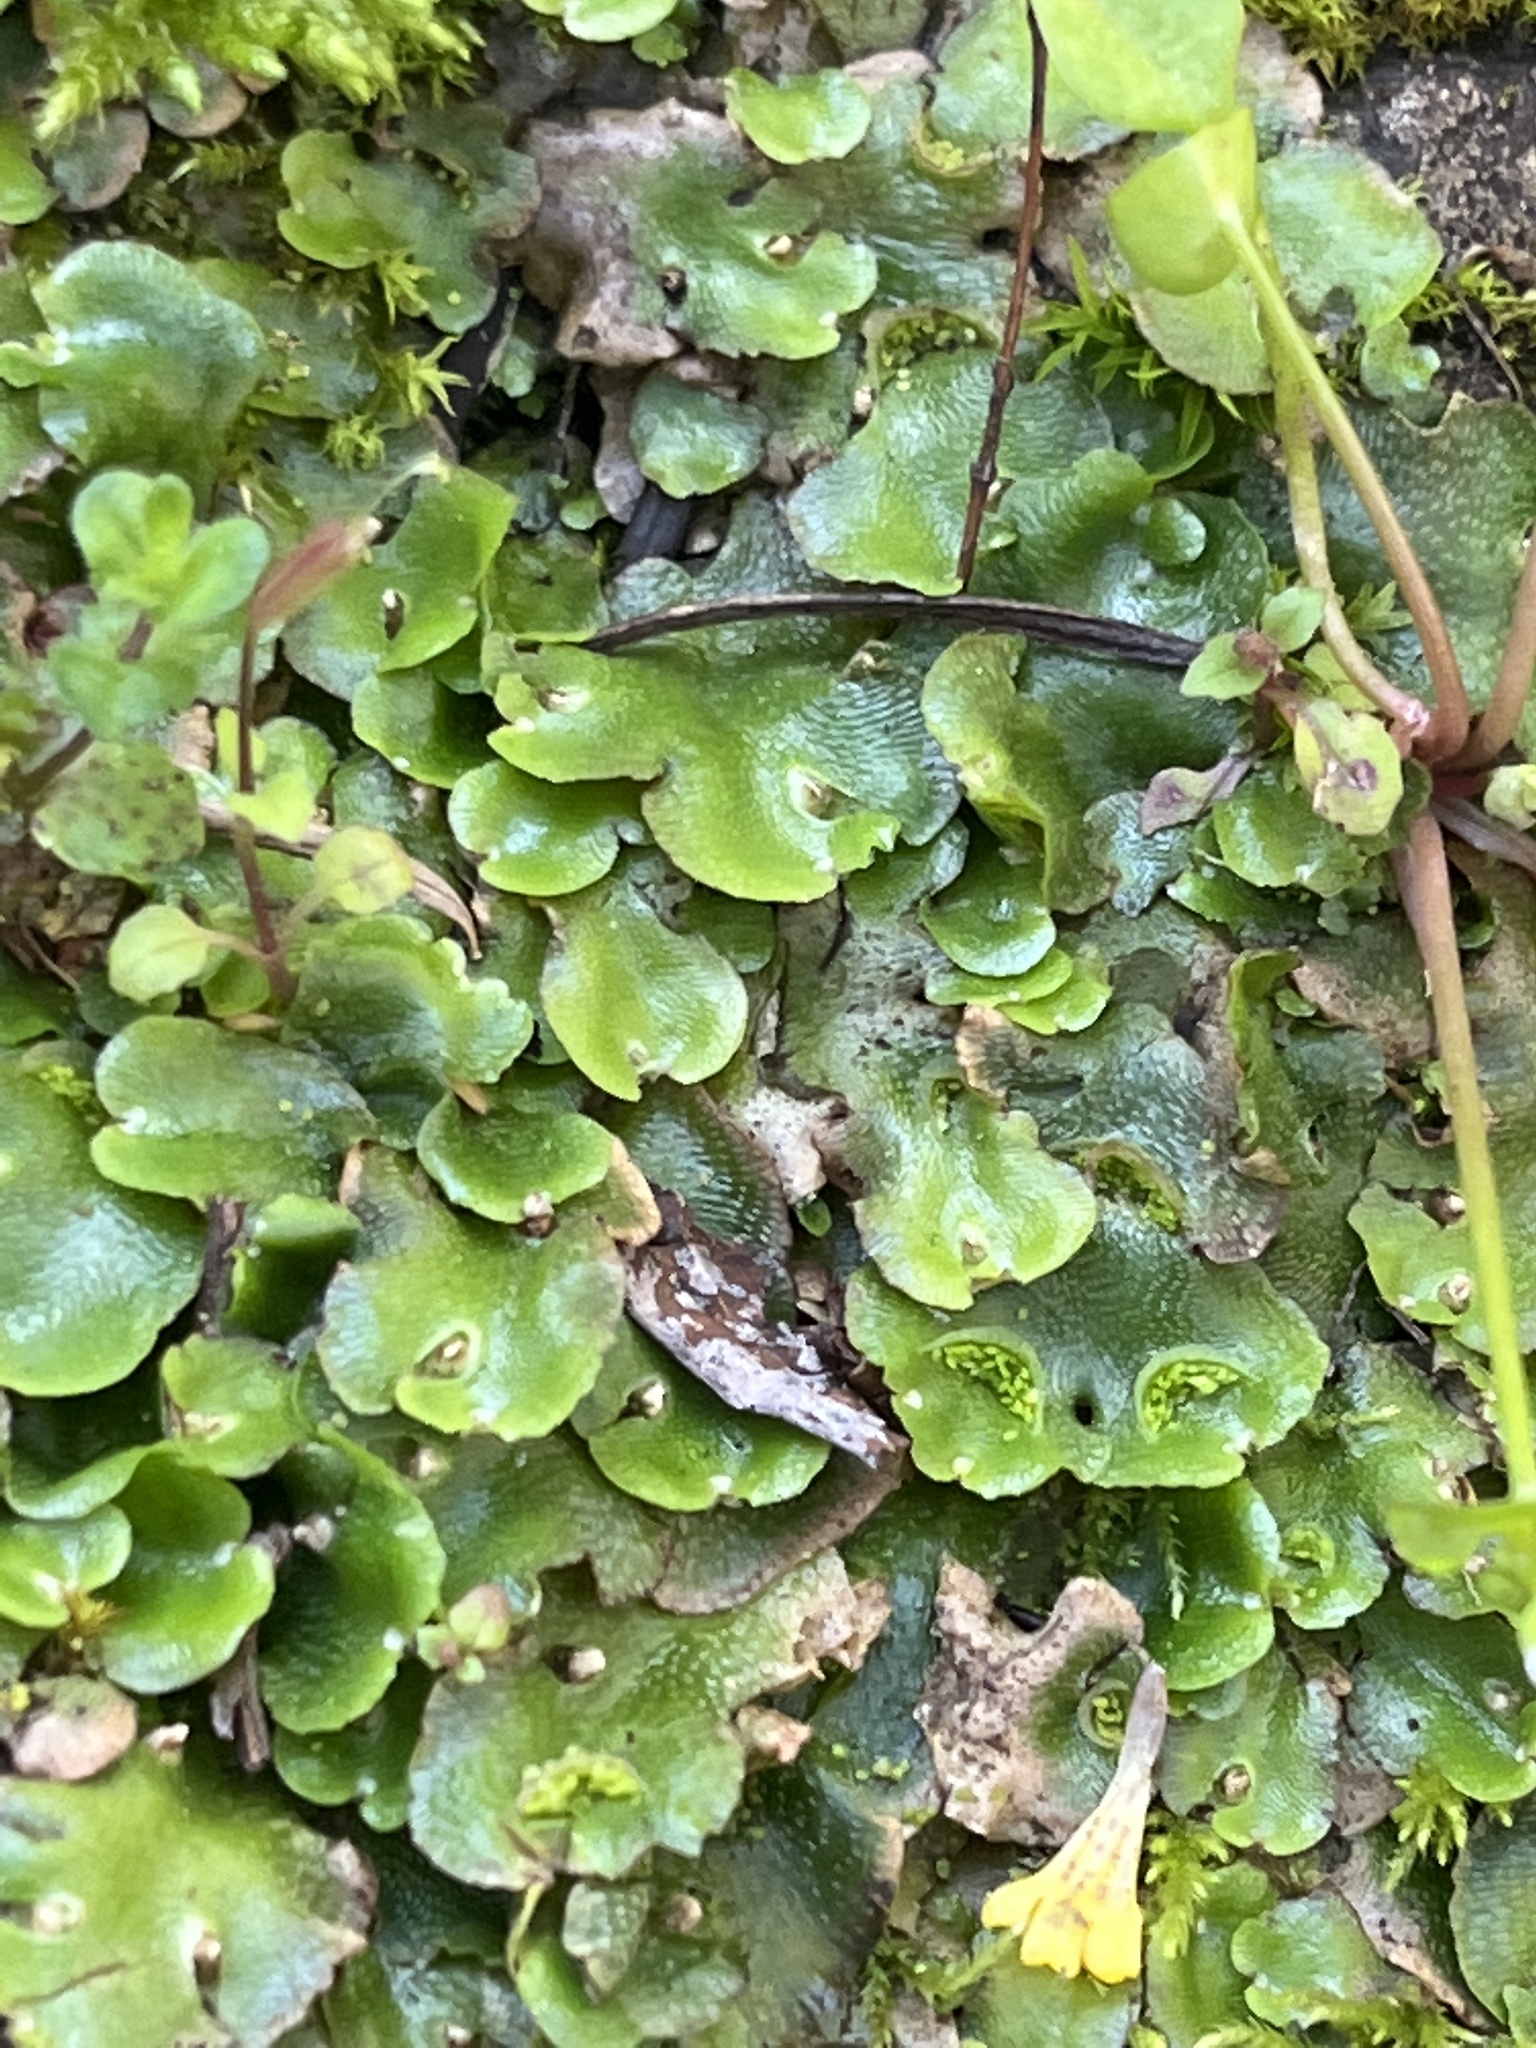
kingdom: Plantae
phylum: Marchantiophyta
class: Marchantiopsida
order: Lunulariales
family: Lunulariaceae
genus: Lunularia
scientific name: Lunularia cruciata
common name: Crescent-cup liverwort
